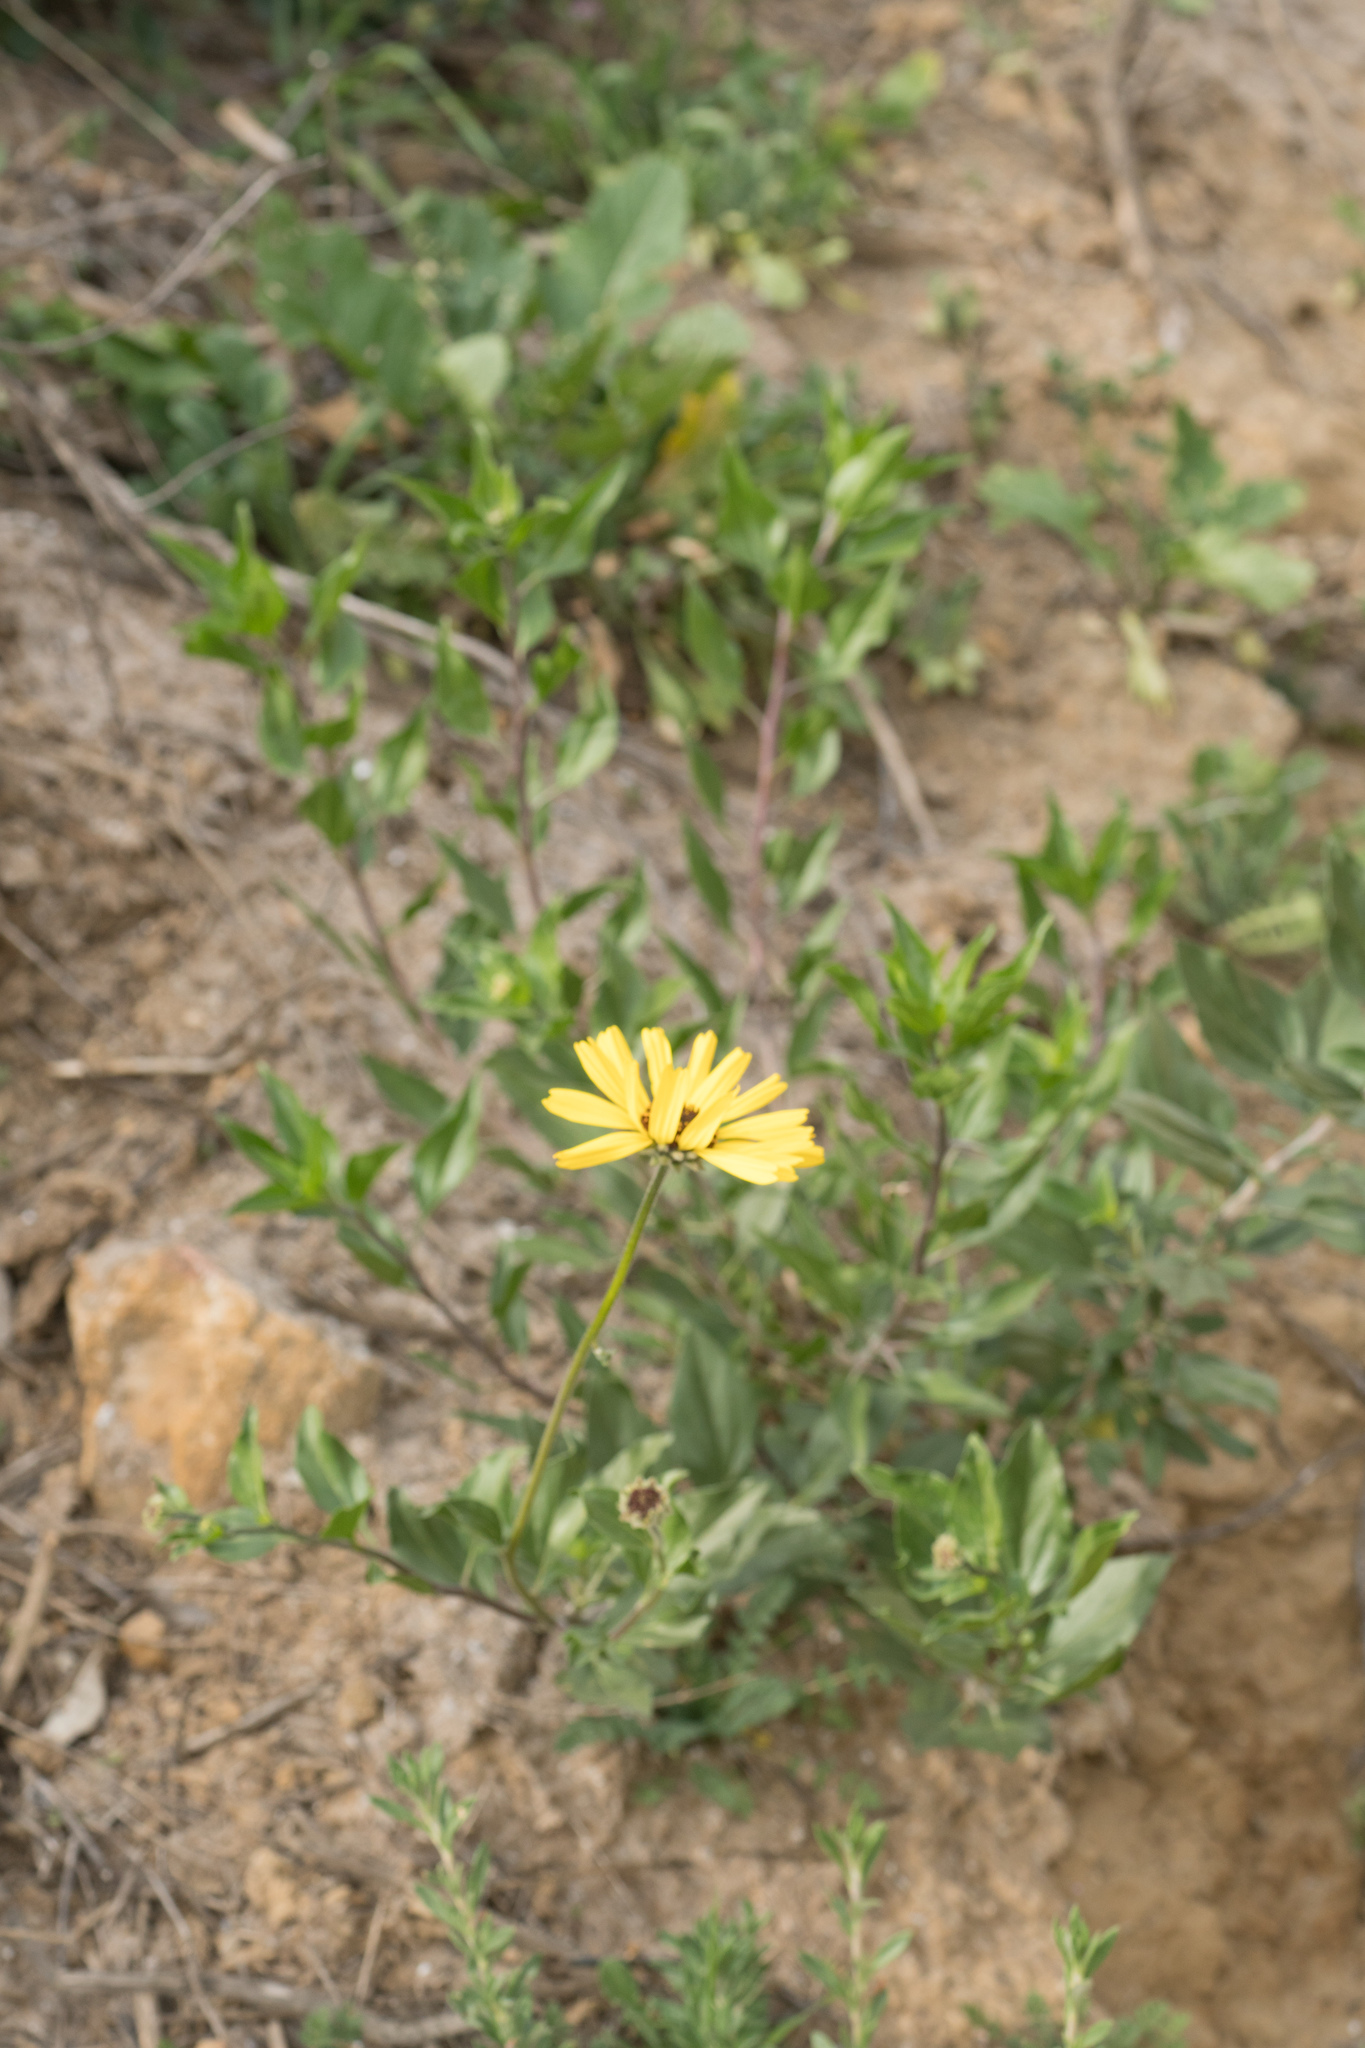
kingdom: Plantae
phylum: Tracheophyta
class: Magnoliopsida
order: Asterales
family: Asteraceae
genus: Encelia
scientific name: Encelia californica
